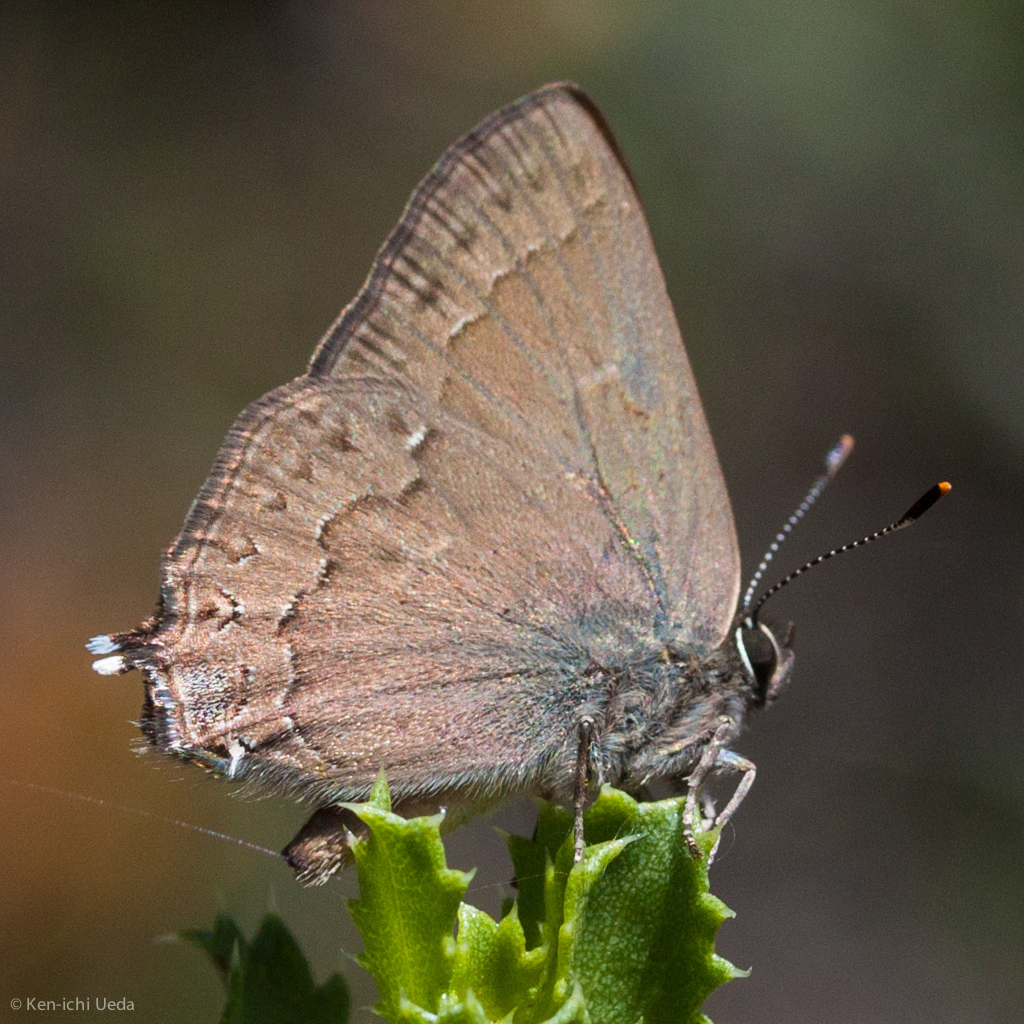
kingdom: Animalia
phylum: Arthropoda
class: Insecta
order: Lepidoptera
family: Lycaenidae
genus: Strymon
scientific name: Strymon saepium
